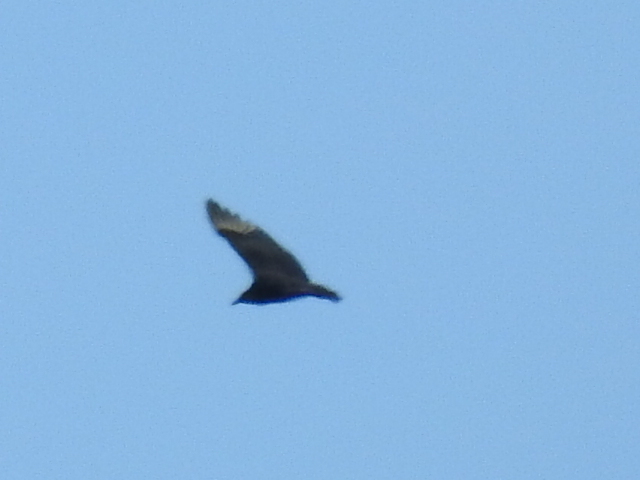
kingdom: Animalia
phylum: Chordata
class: Aves
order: Accipitriformes
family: Cathartidae
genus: Coragyps
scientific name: Coragyps atratus
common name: Black vulture
